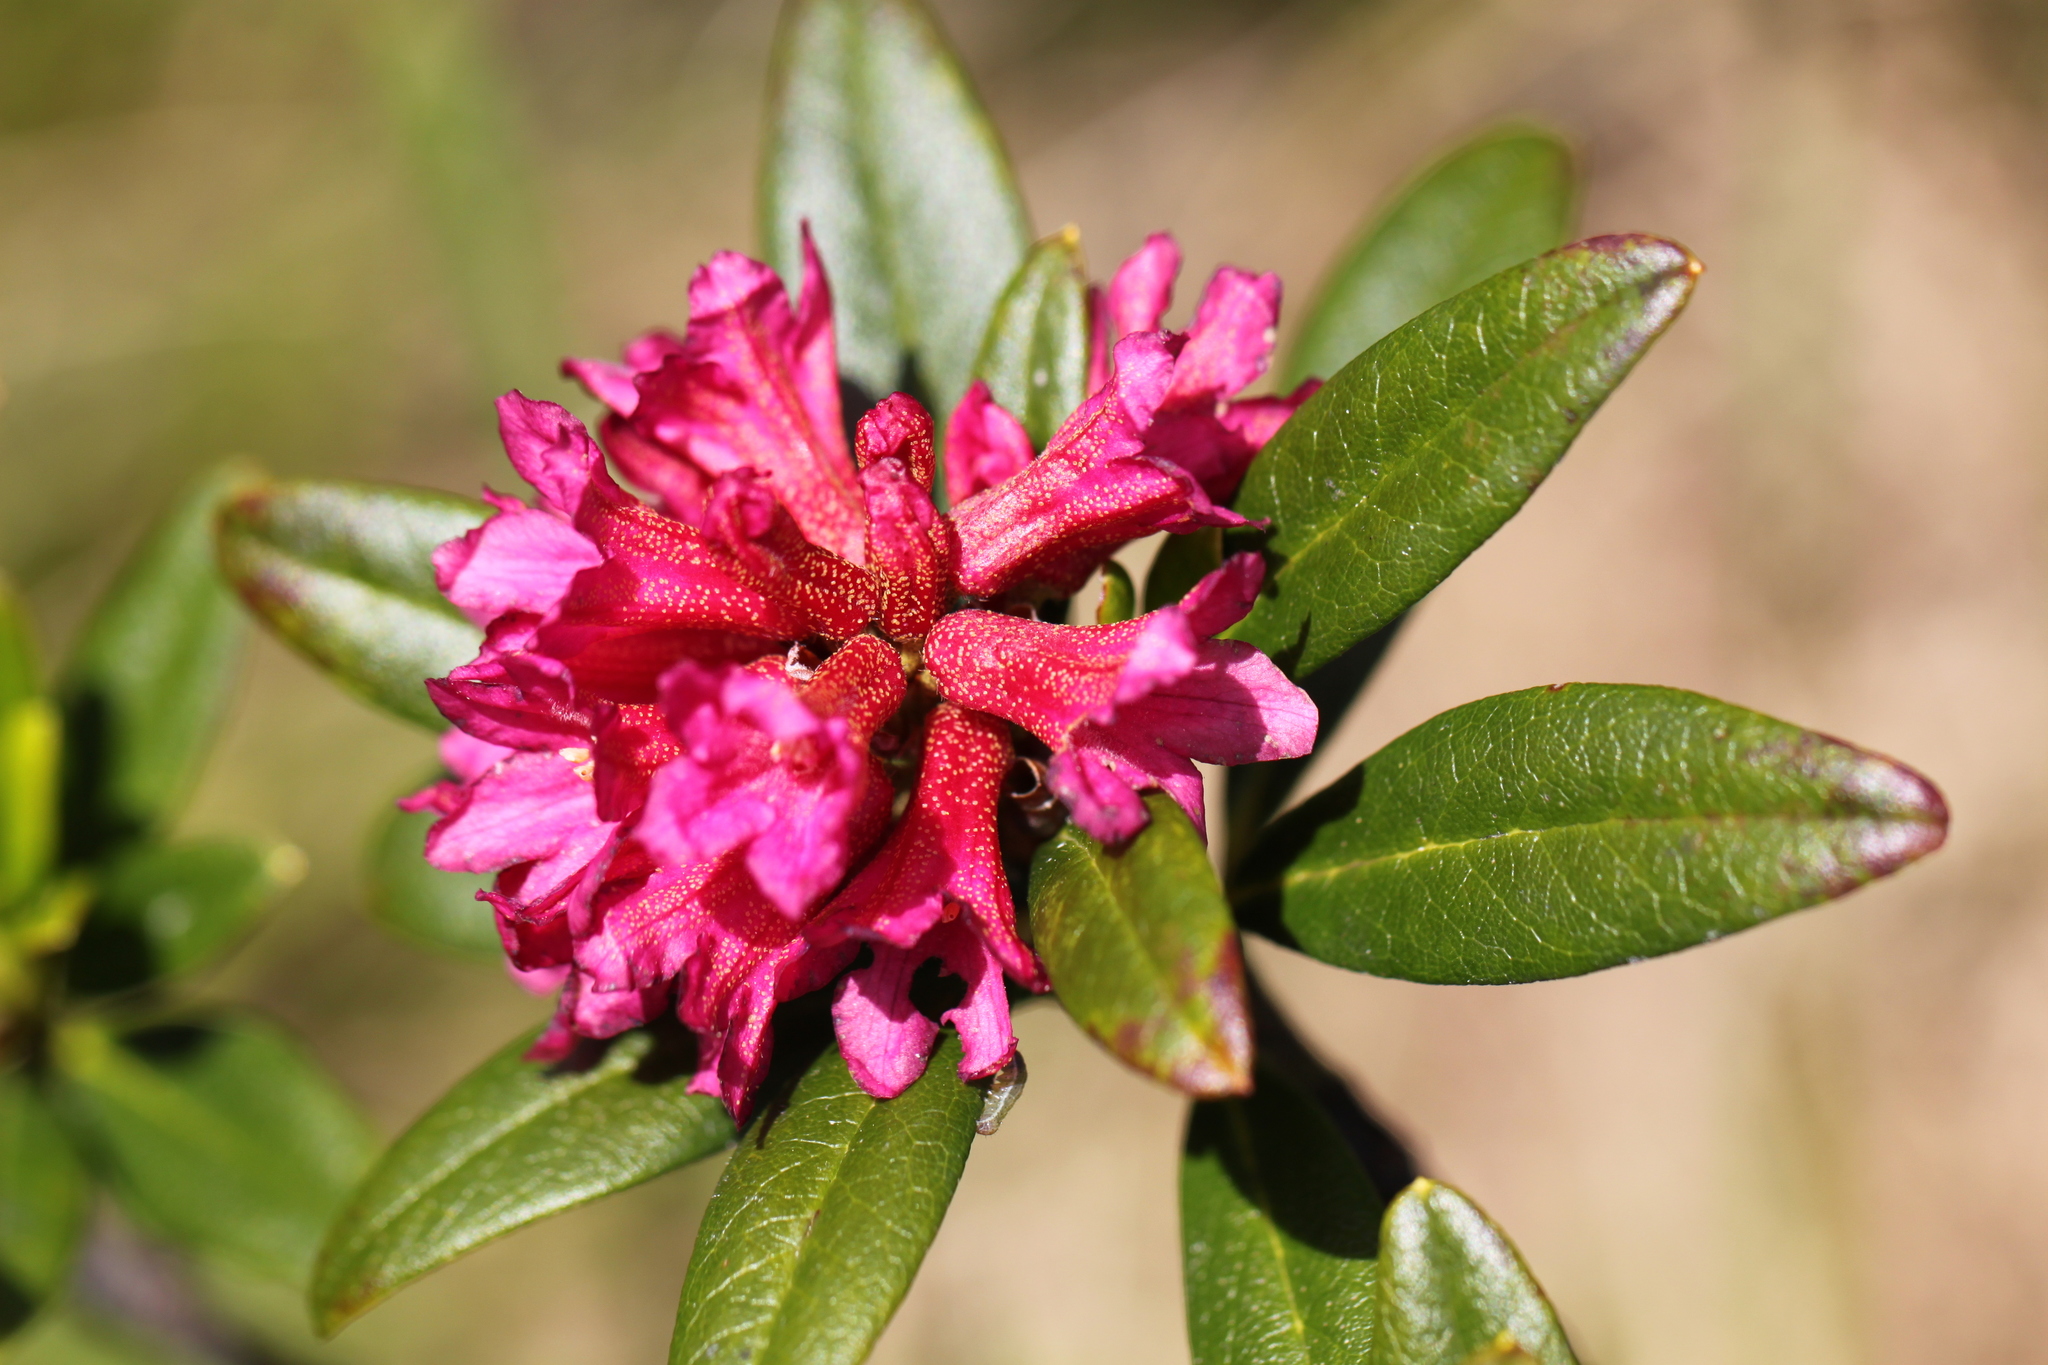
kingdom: Plantae
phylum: Tracheophyta
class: Magnoliopsida
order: Ericales
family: Ericaceae
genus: Rhododendron
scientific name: Rhododendron ferrugineum
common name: Alpenrose
